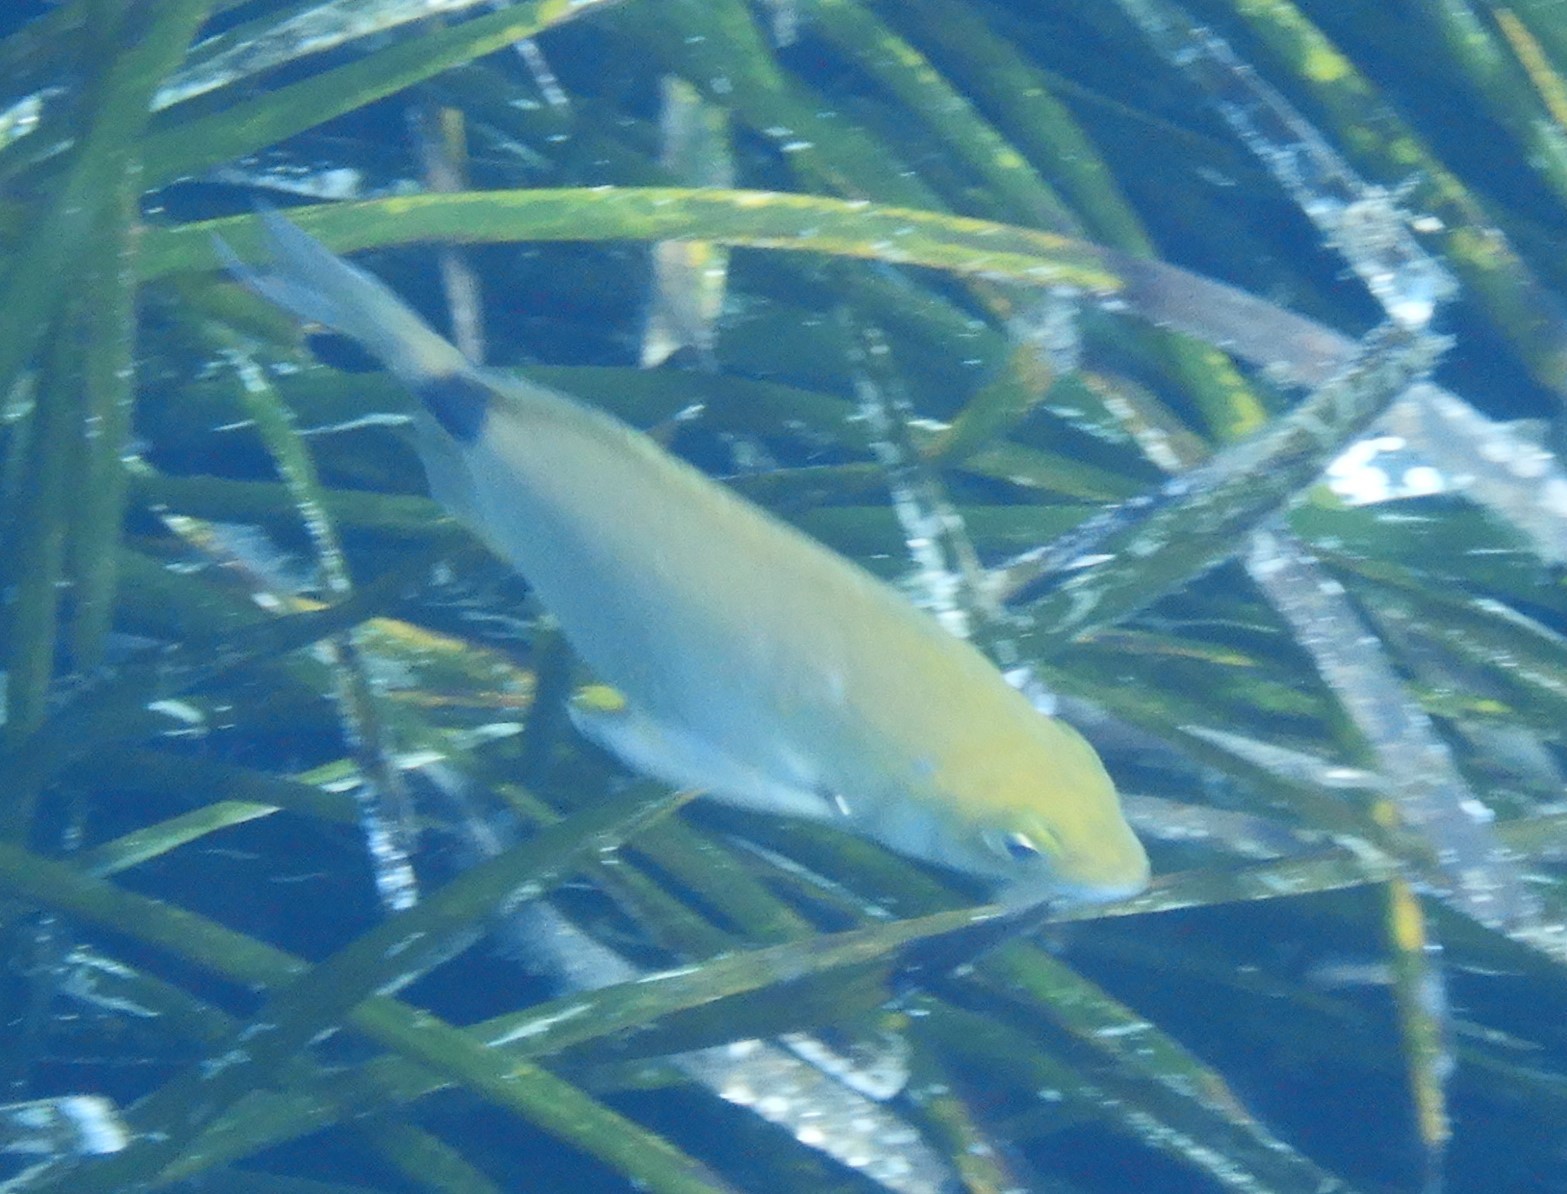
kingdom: Animalia
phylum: Chordata
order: Perciformes
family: Sparidae
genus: Diplodus
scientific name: Diplodus annularis
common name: Annular seabream
